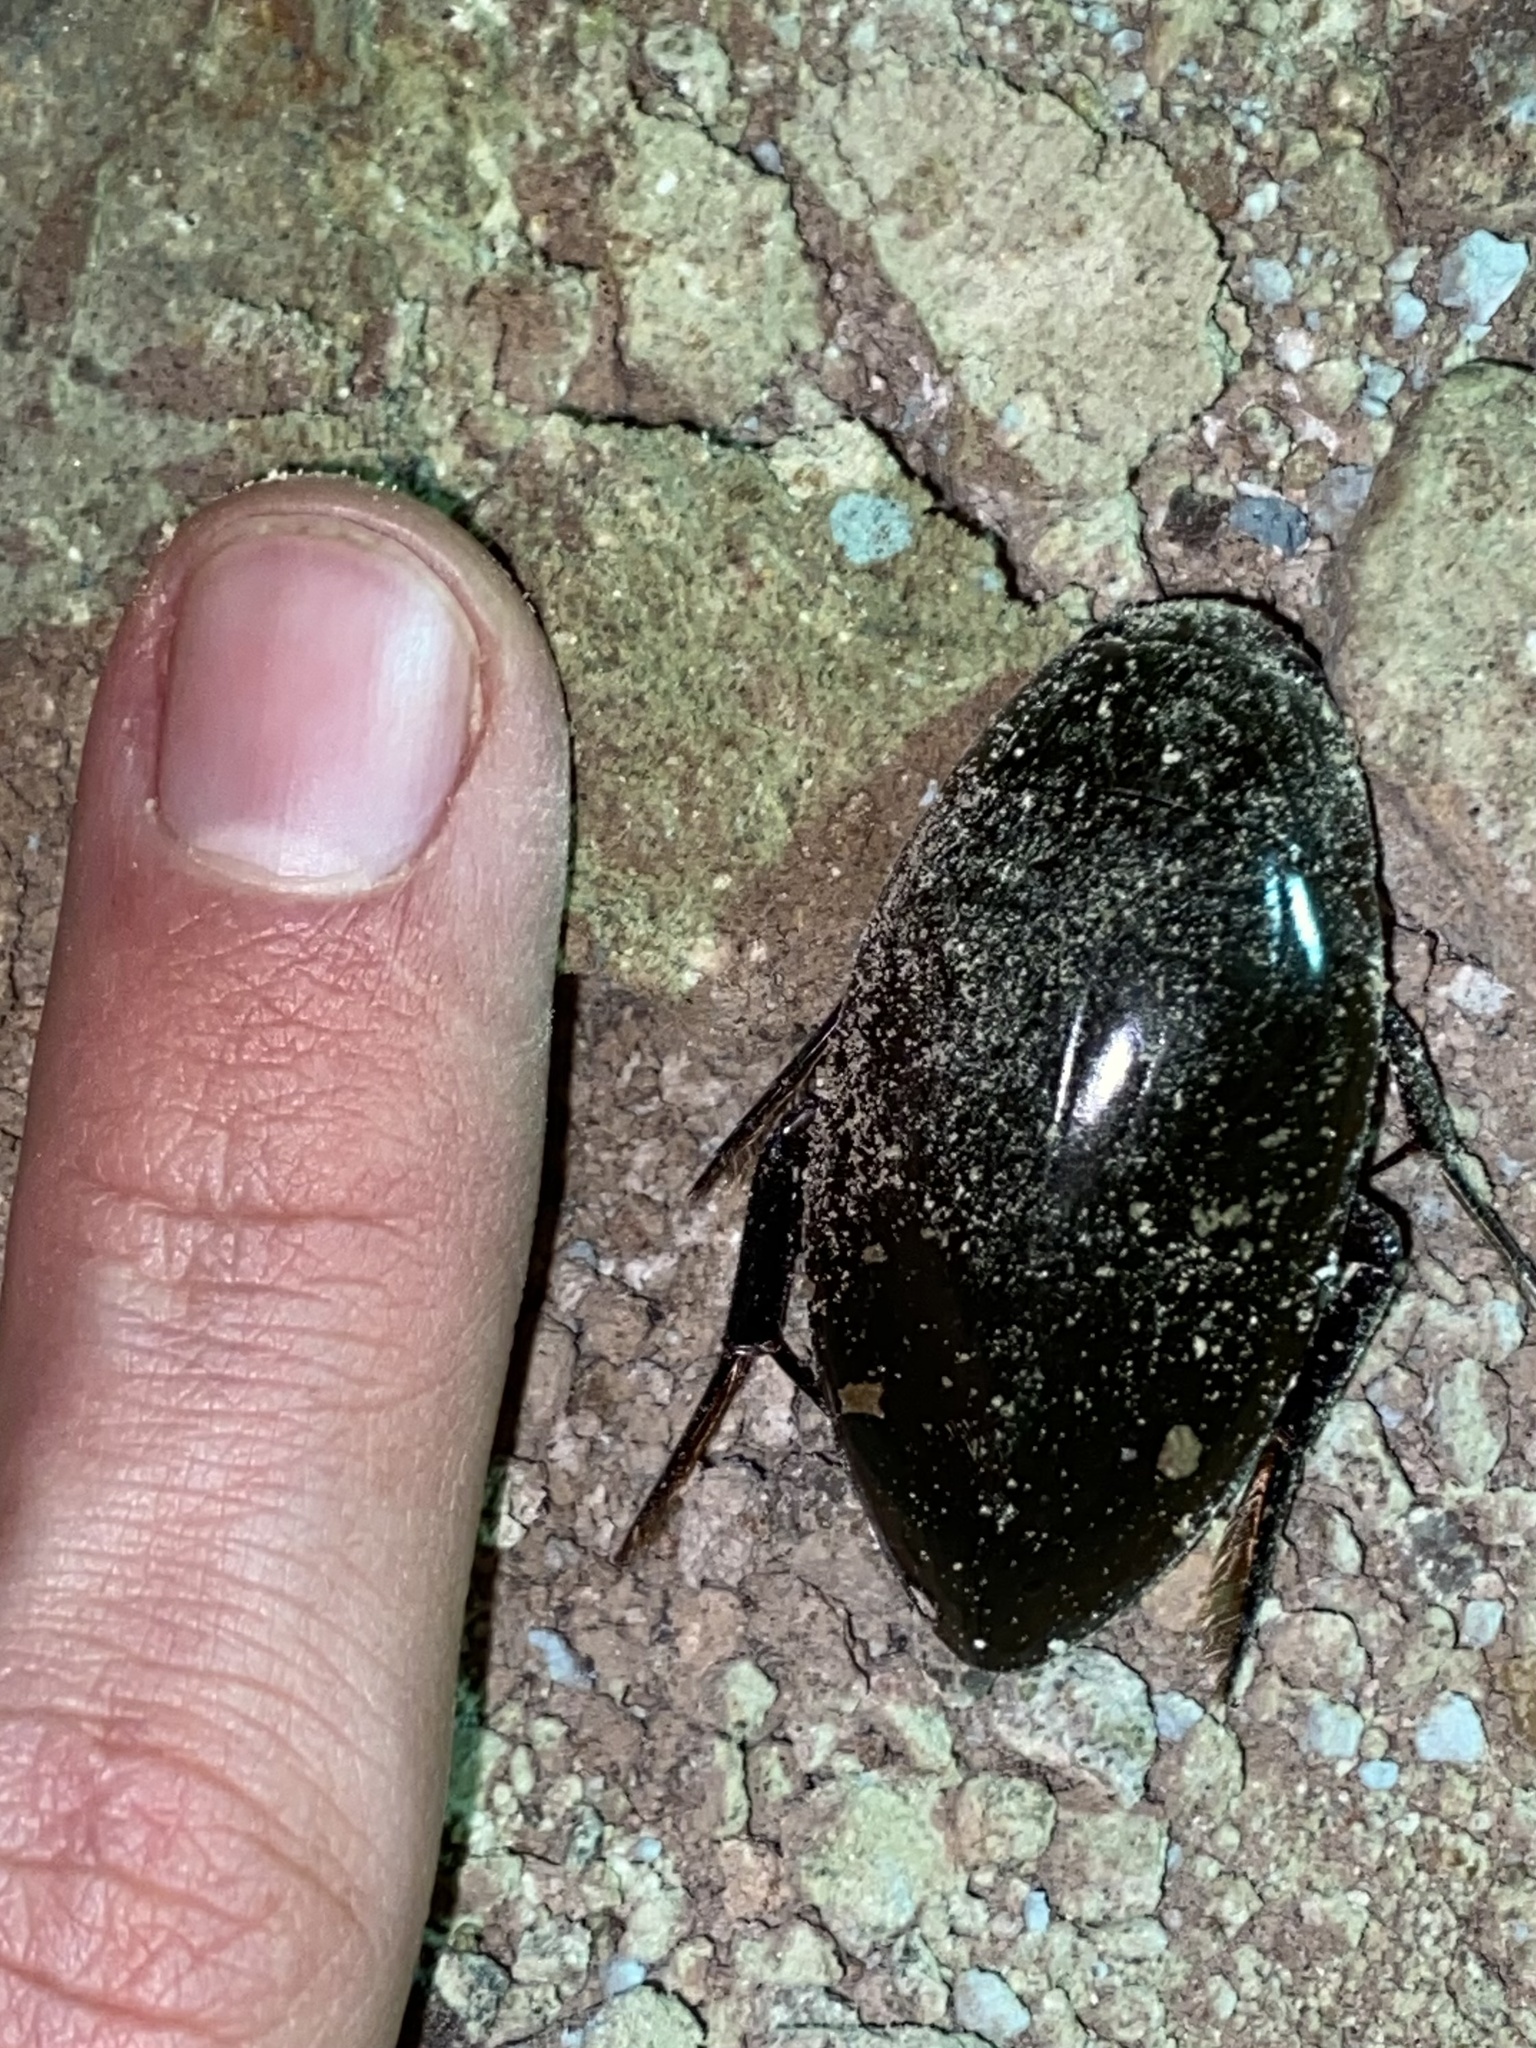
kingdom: Animalia
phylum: Arthropoda
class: Insecta
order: Coleoptera
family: Hydrophilidae
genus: Hydrophilus
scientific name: Hydrophilus
